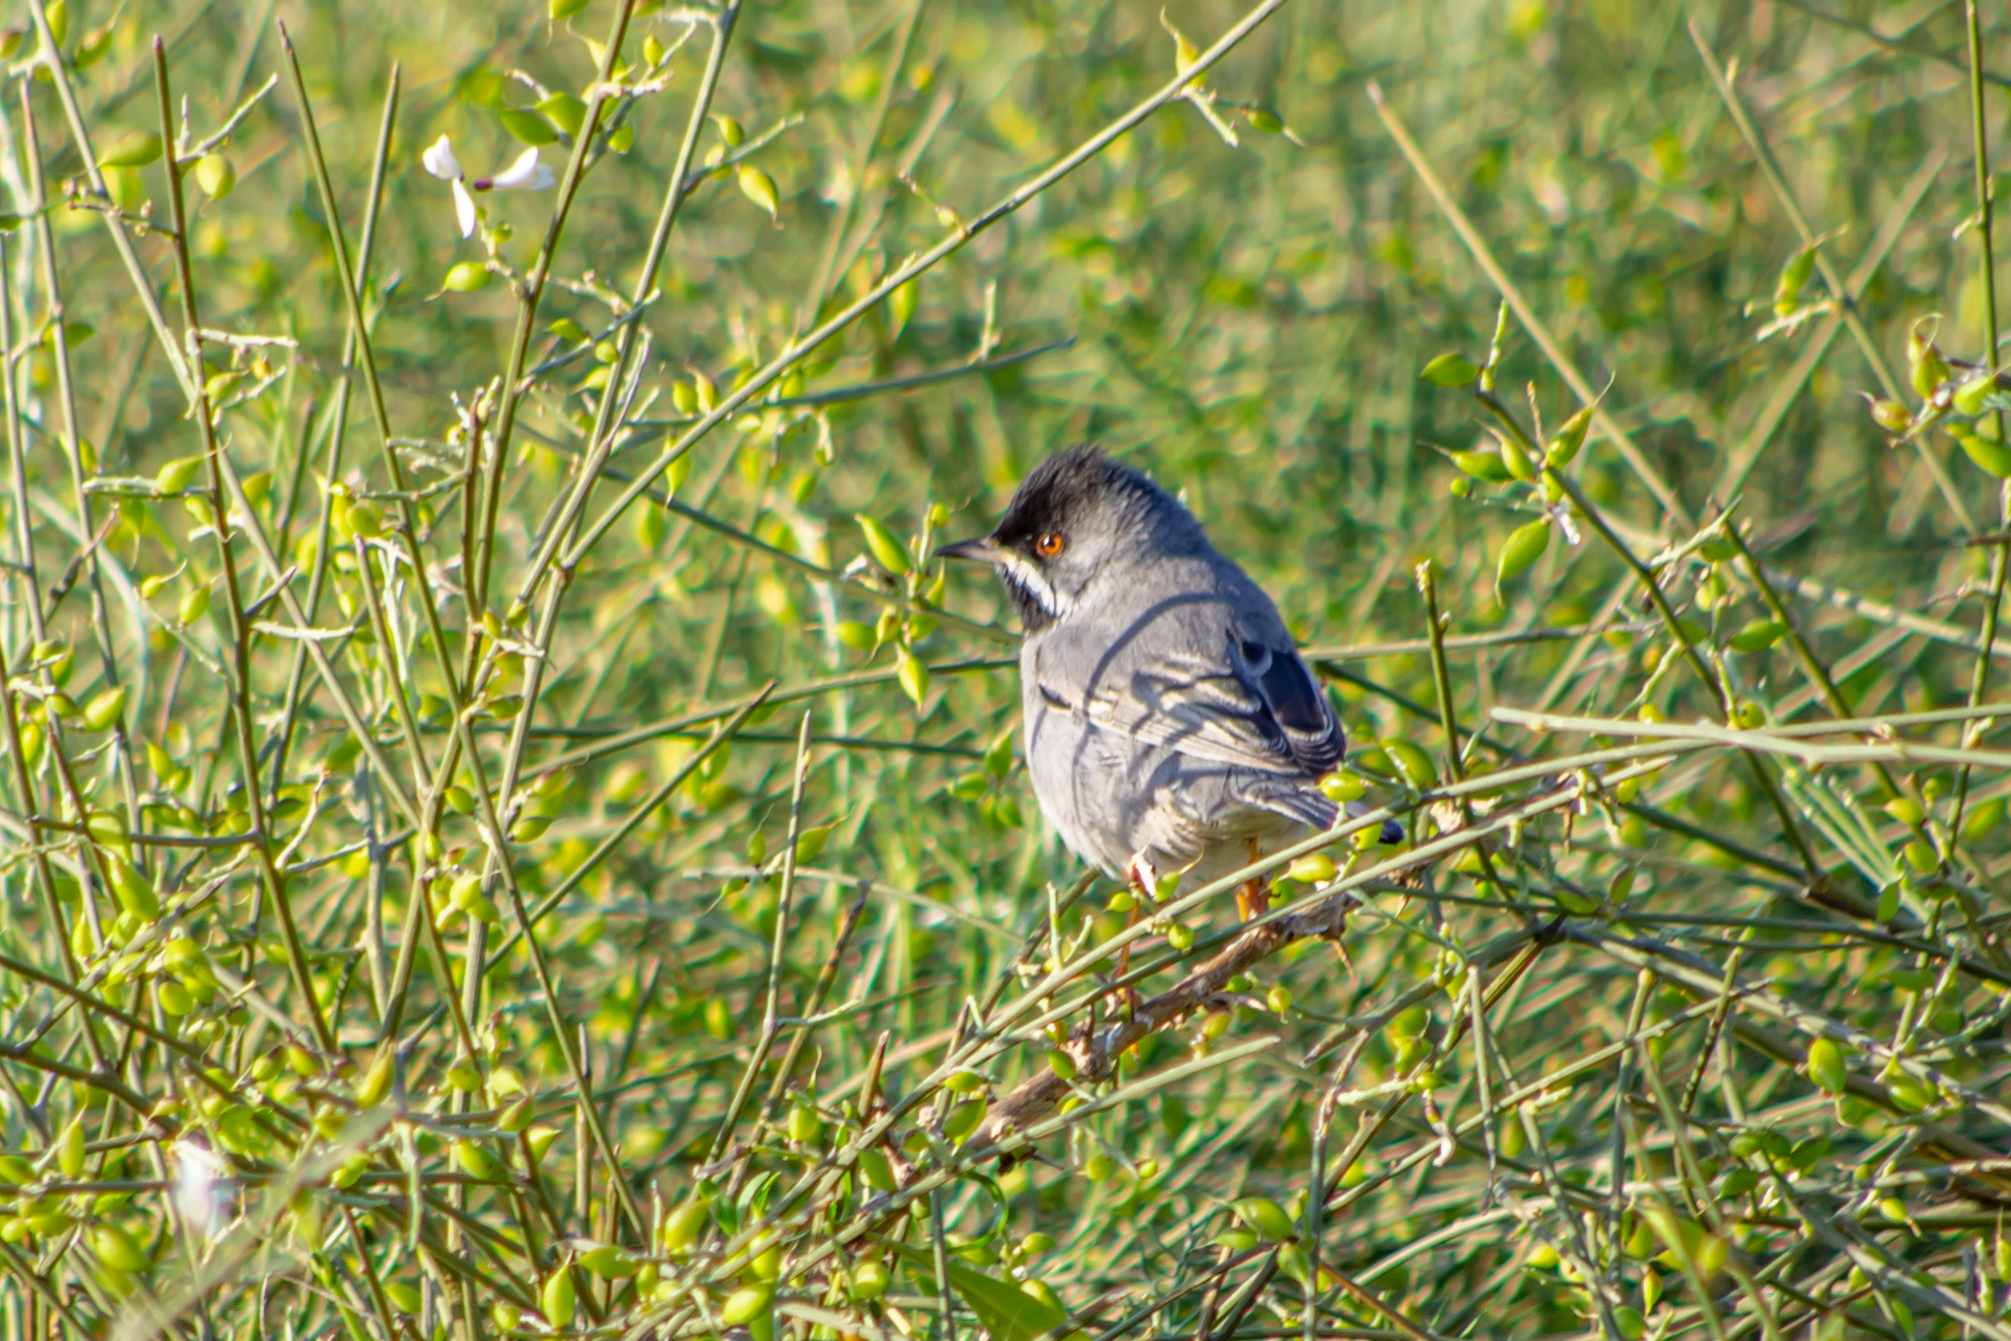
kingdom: Animalia
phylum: Chordata
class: Aves
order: Passeriformes
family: Sylviidae
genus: Sylvia
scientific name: Sylvia ruppeli
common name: Rüppell's warbler
